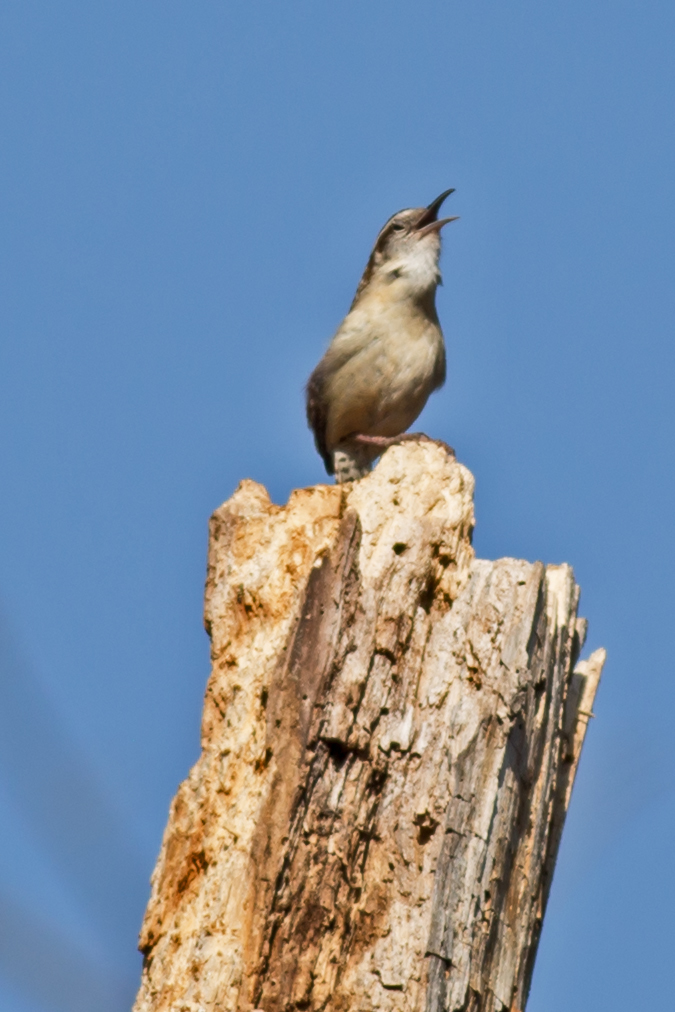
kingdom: Animalia
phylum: Chordata
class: Aves
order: Passeriformes
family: Troglodytidae
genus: Thryothorus
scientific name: Thryothorus ludovicianus
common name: Carolina wren
